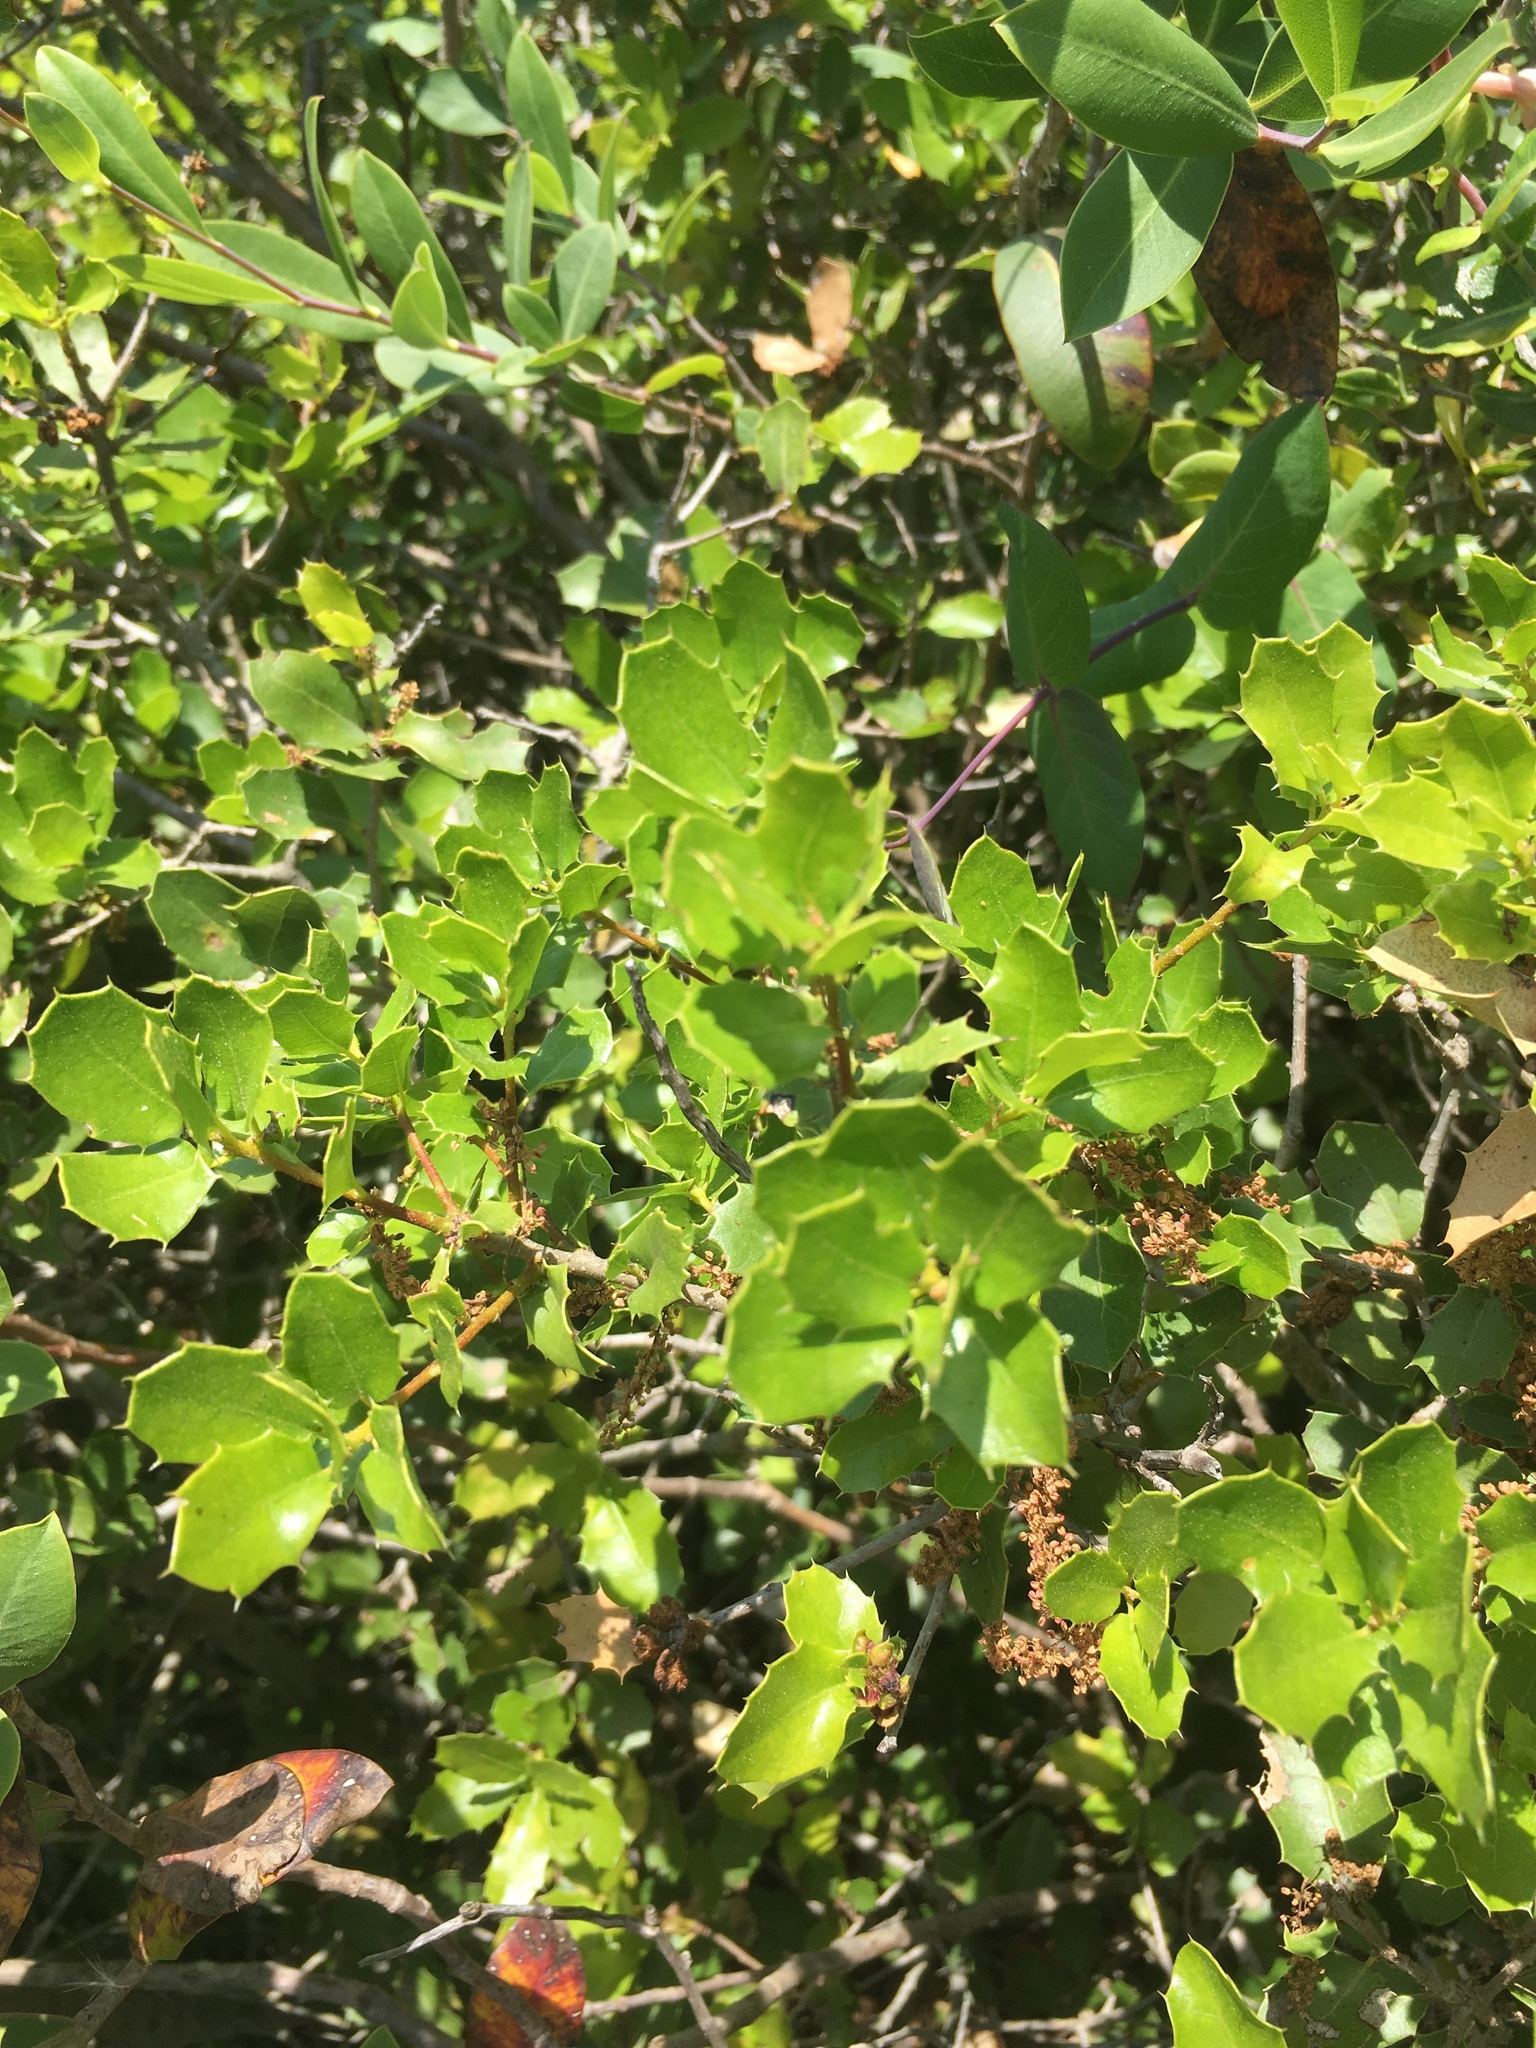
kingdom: Plantae
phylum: Tracheophyta
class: Magnoliopsida
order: Fagales
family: Fagaceae
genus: Quercus
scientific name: Quercus coccifera
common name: Kermes oak
